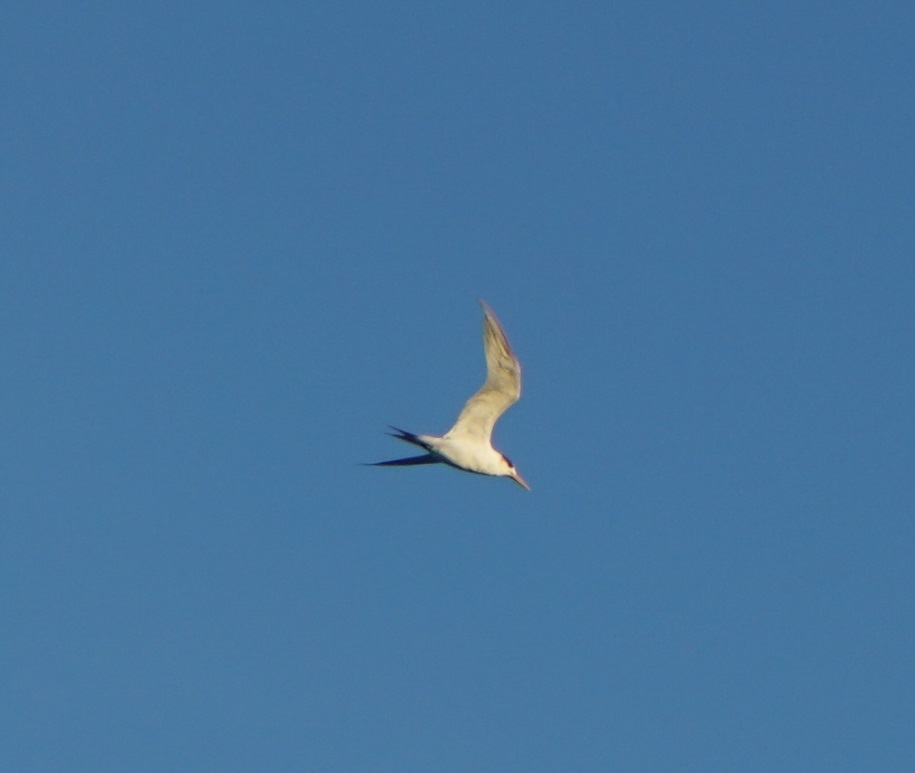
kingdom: Animalia
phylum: Chordata
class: Aves
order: Charadriiformes
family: Laridae
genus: Thalasseus
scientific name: Thalasseus bergii
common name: Greater crested tern
